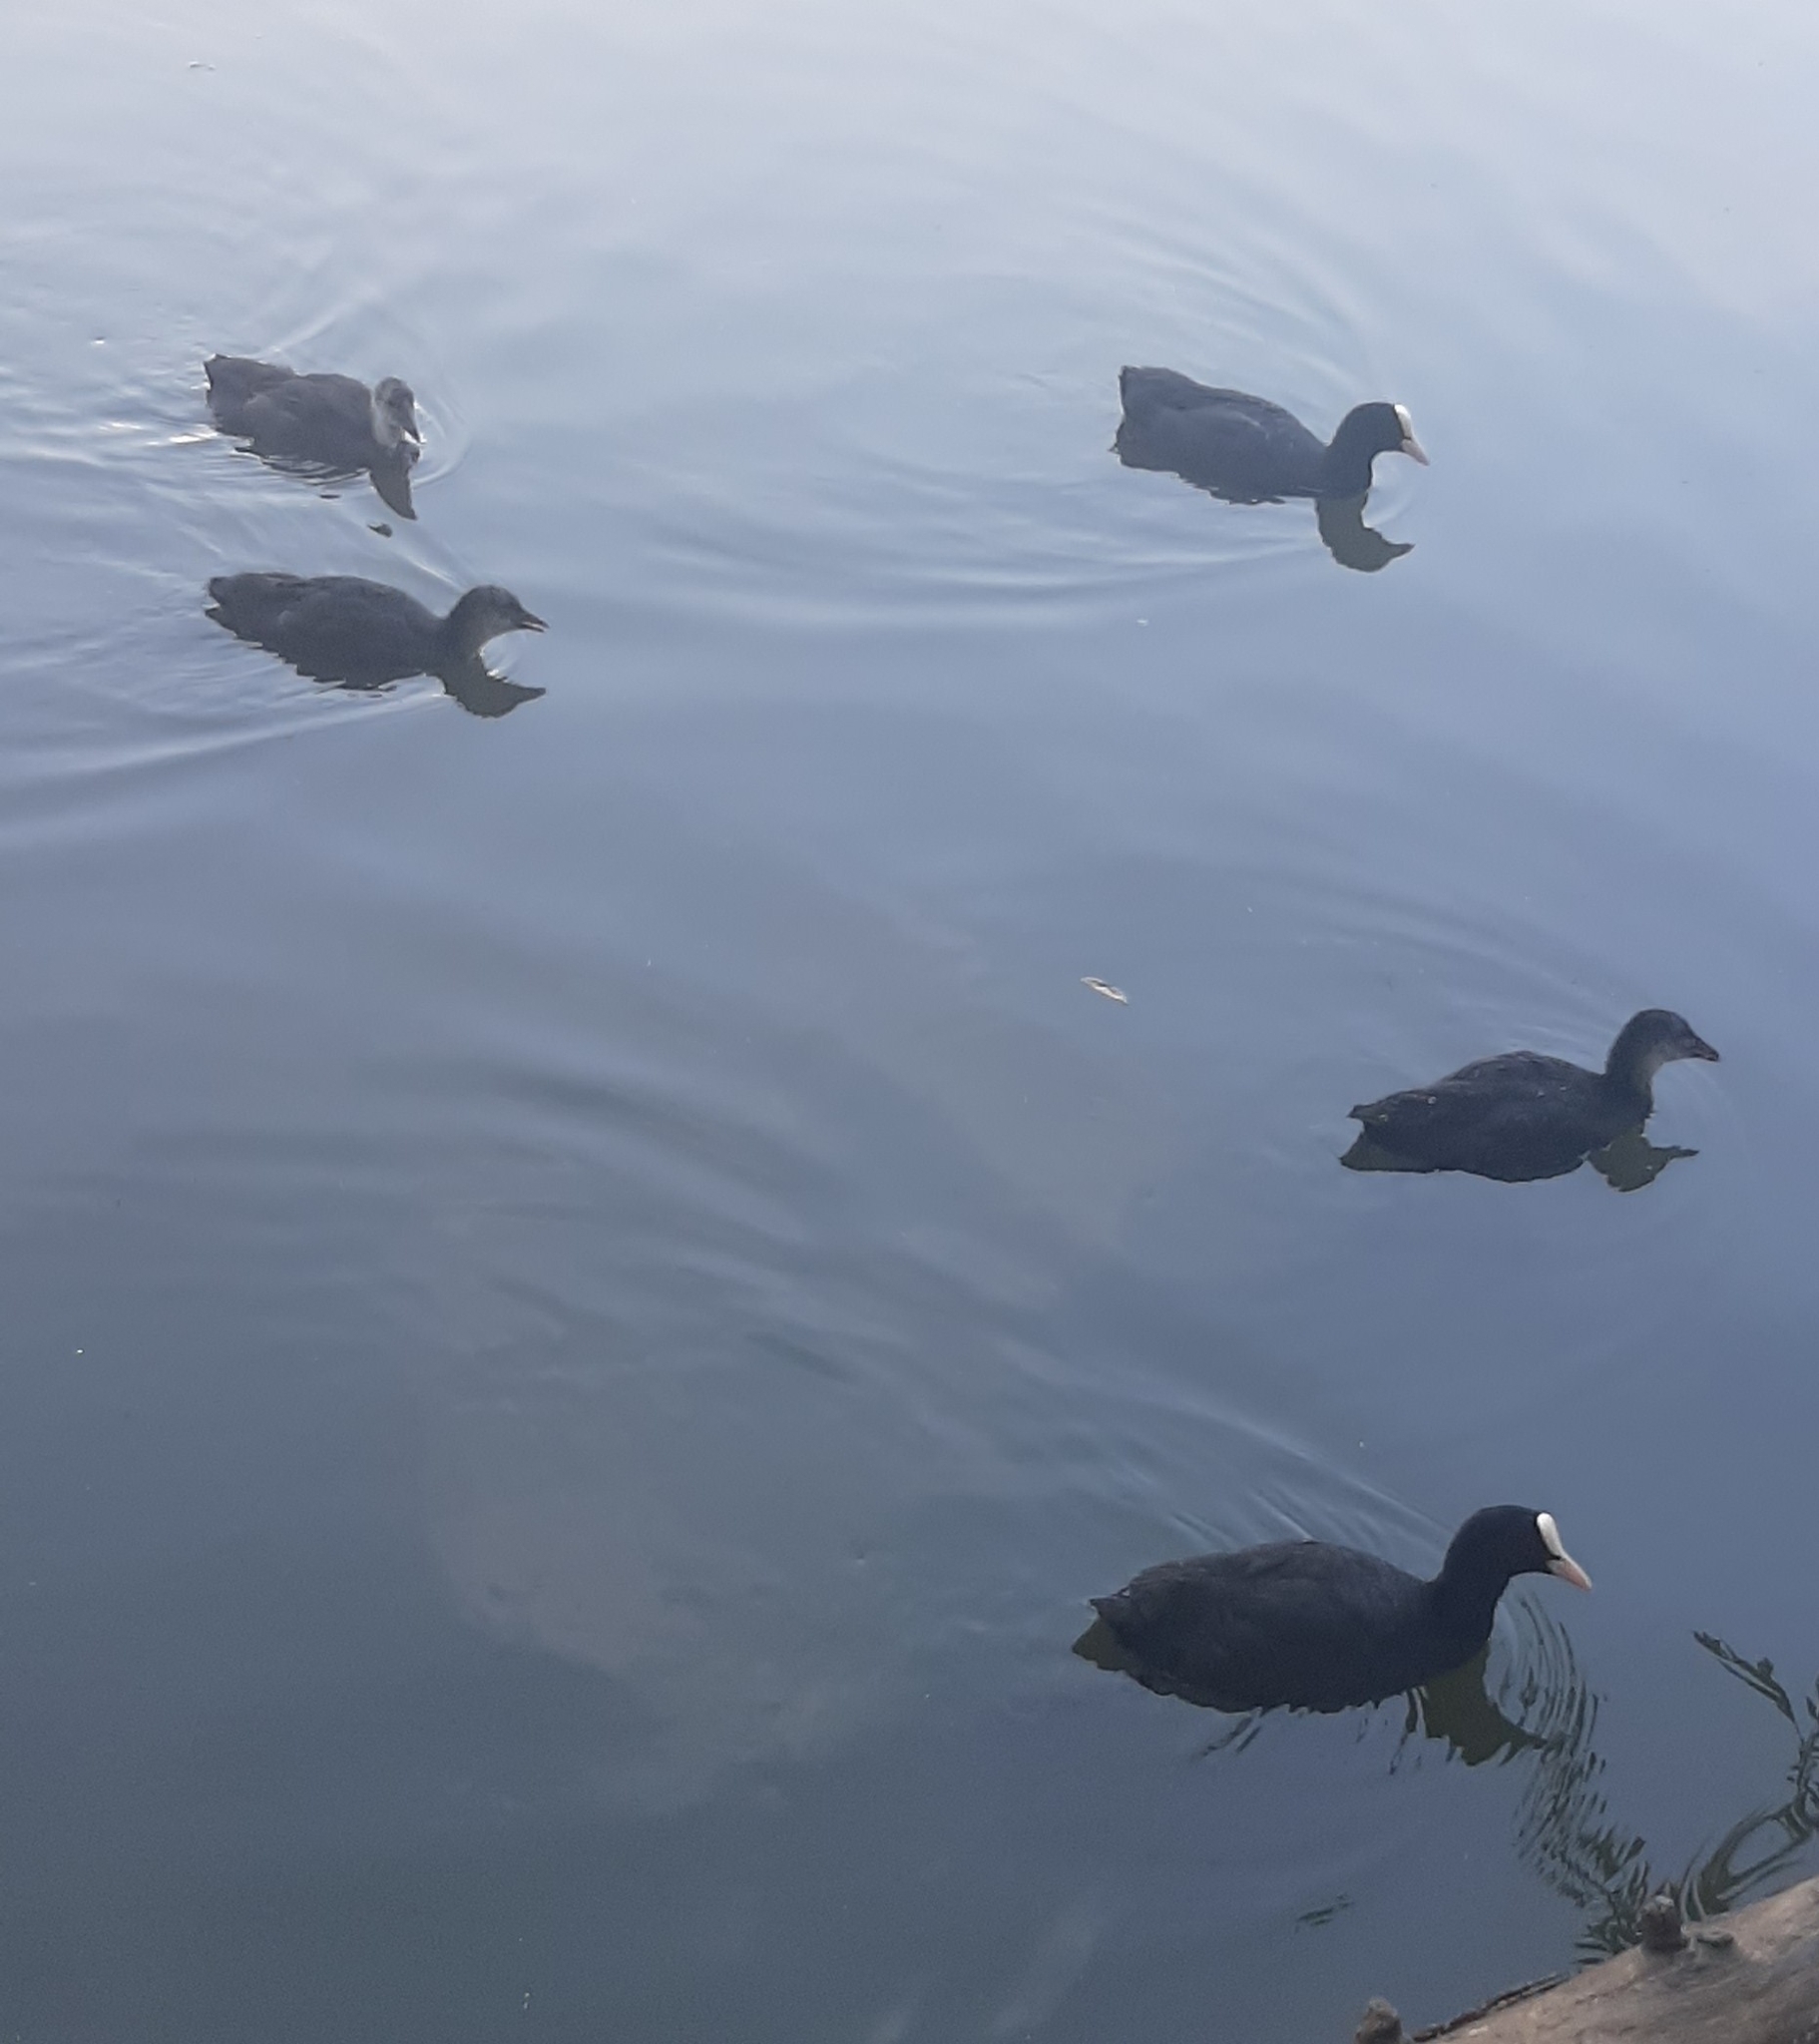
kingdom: Animalia
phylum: Chordata
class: Aves
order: Gruiformes
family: Rallidae
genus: Fulica
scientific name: Fulica atra
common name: Eurasian coot
